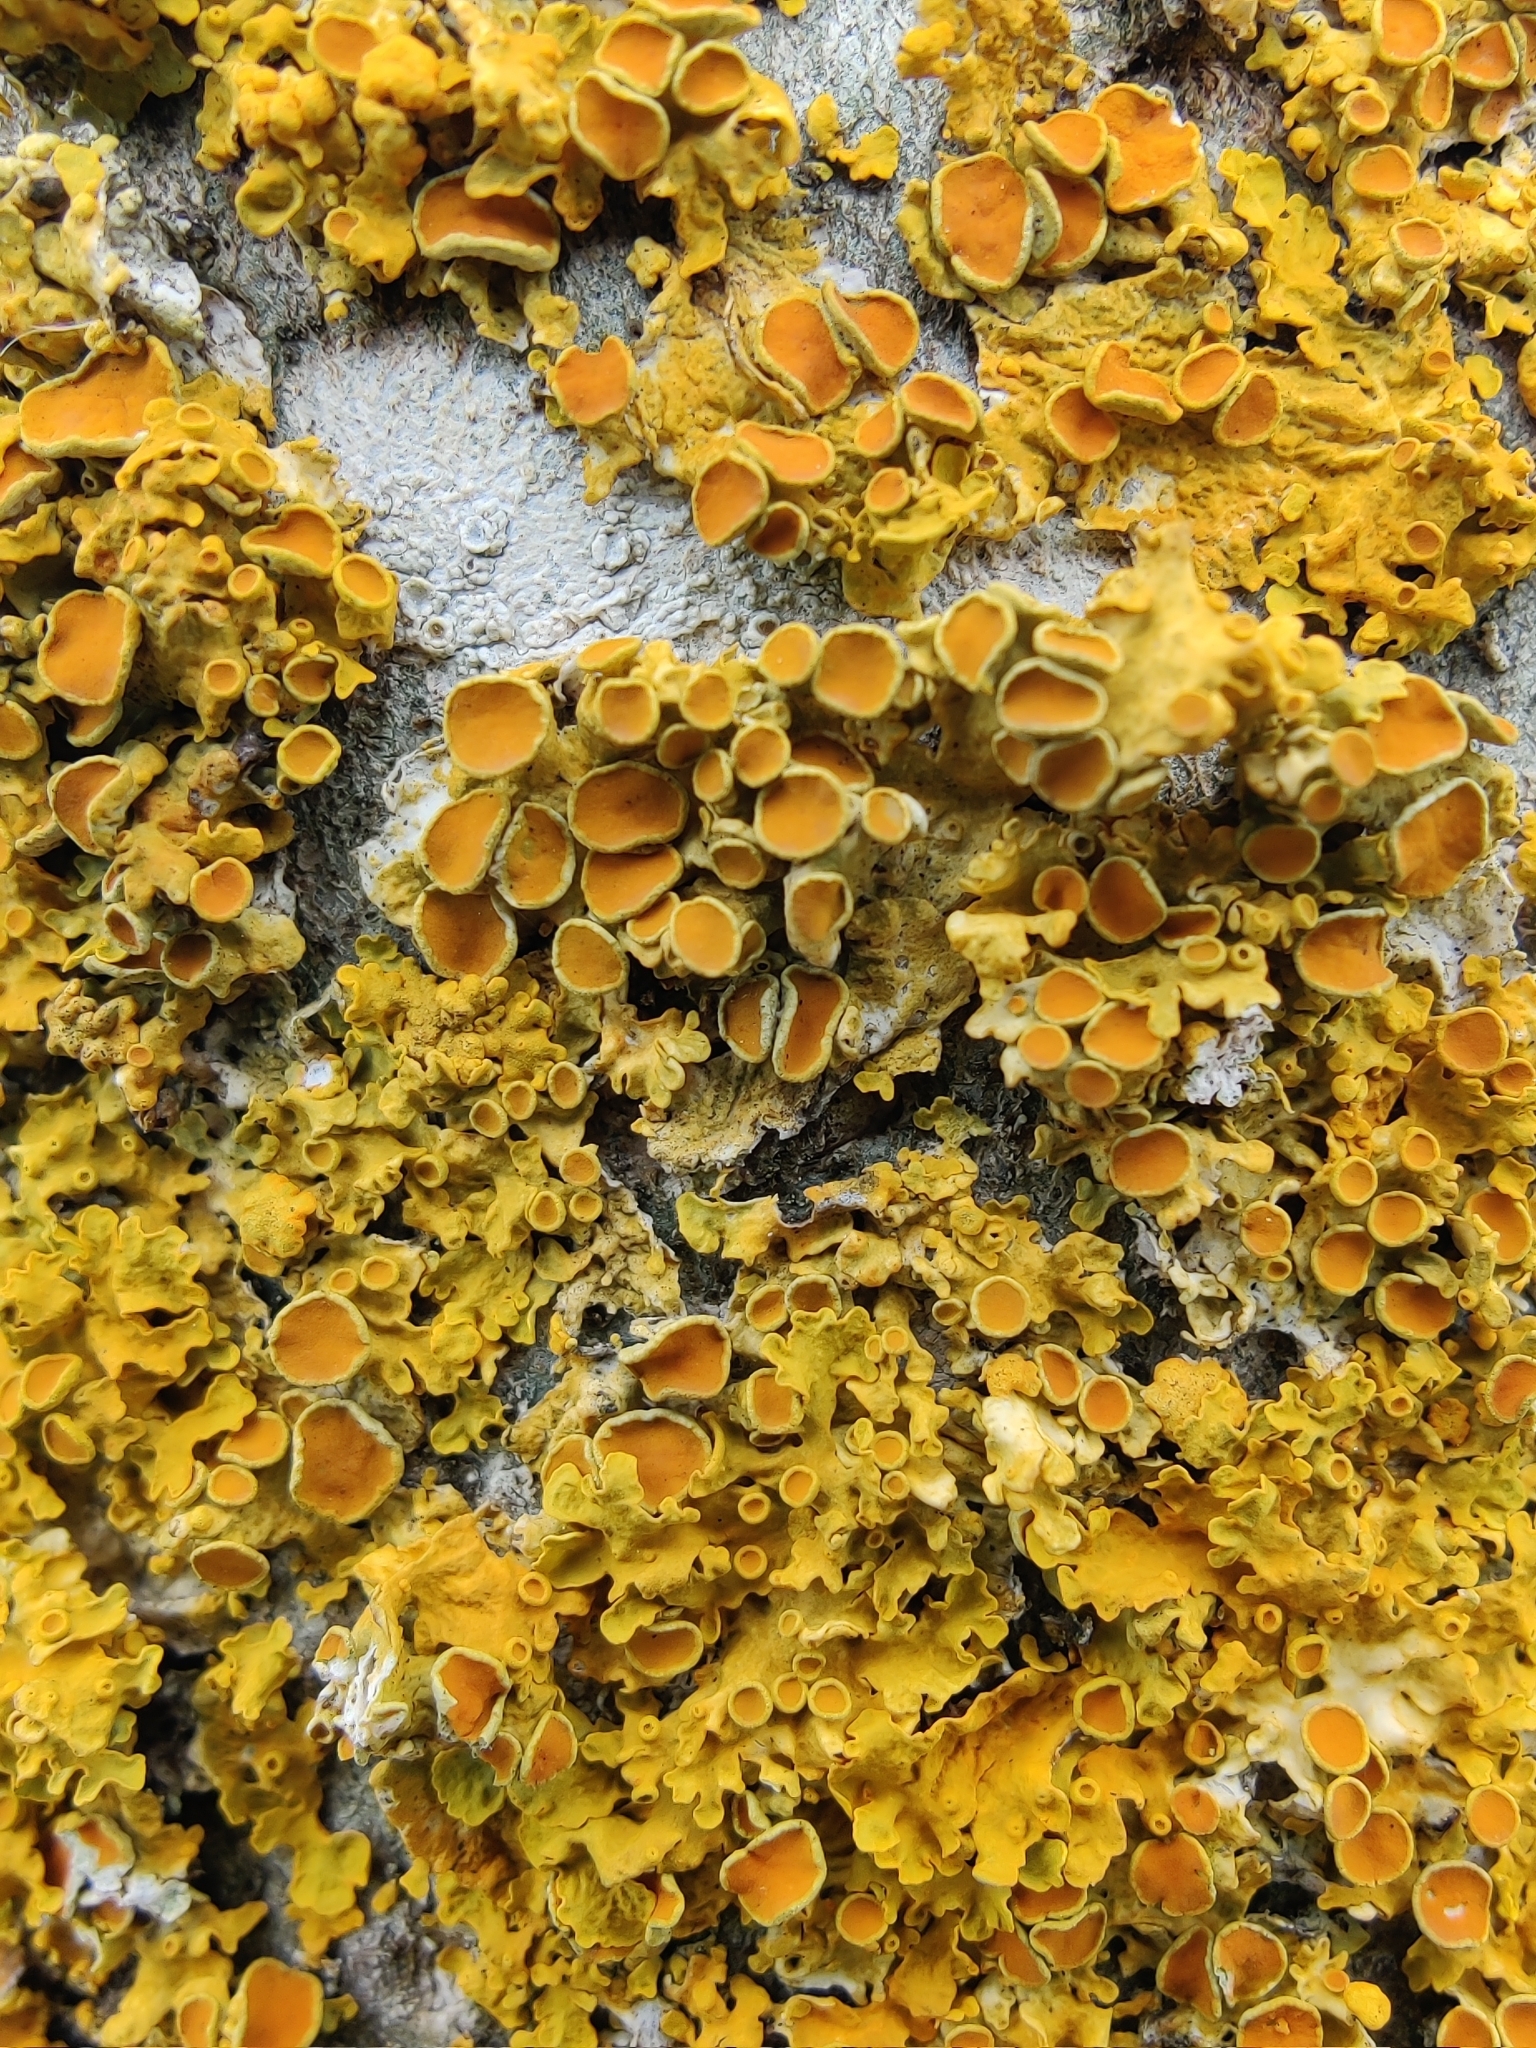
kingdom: Fungi
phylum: Ascomycota
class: Lecanoromycetes
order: Teloschistales
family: Teloschistaceae
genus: Xanthoria
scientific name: Xanthoria parietina
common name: Common orange lichen
